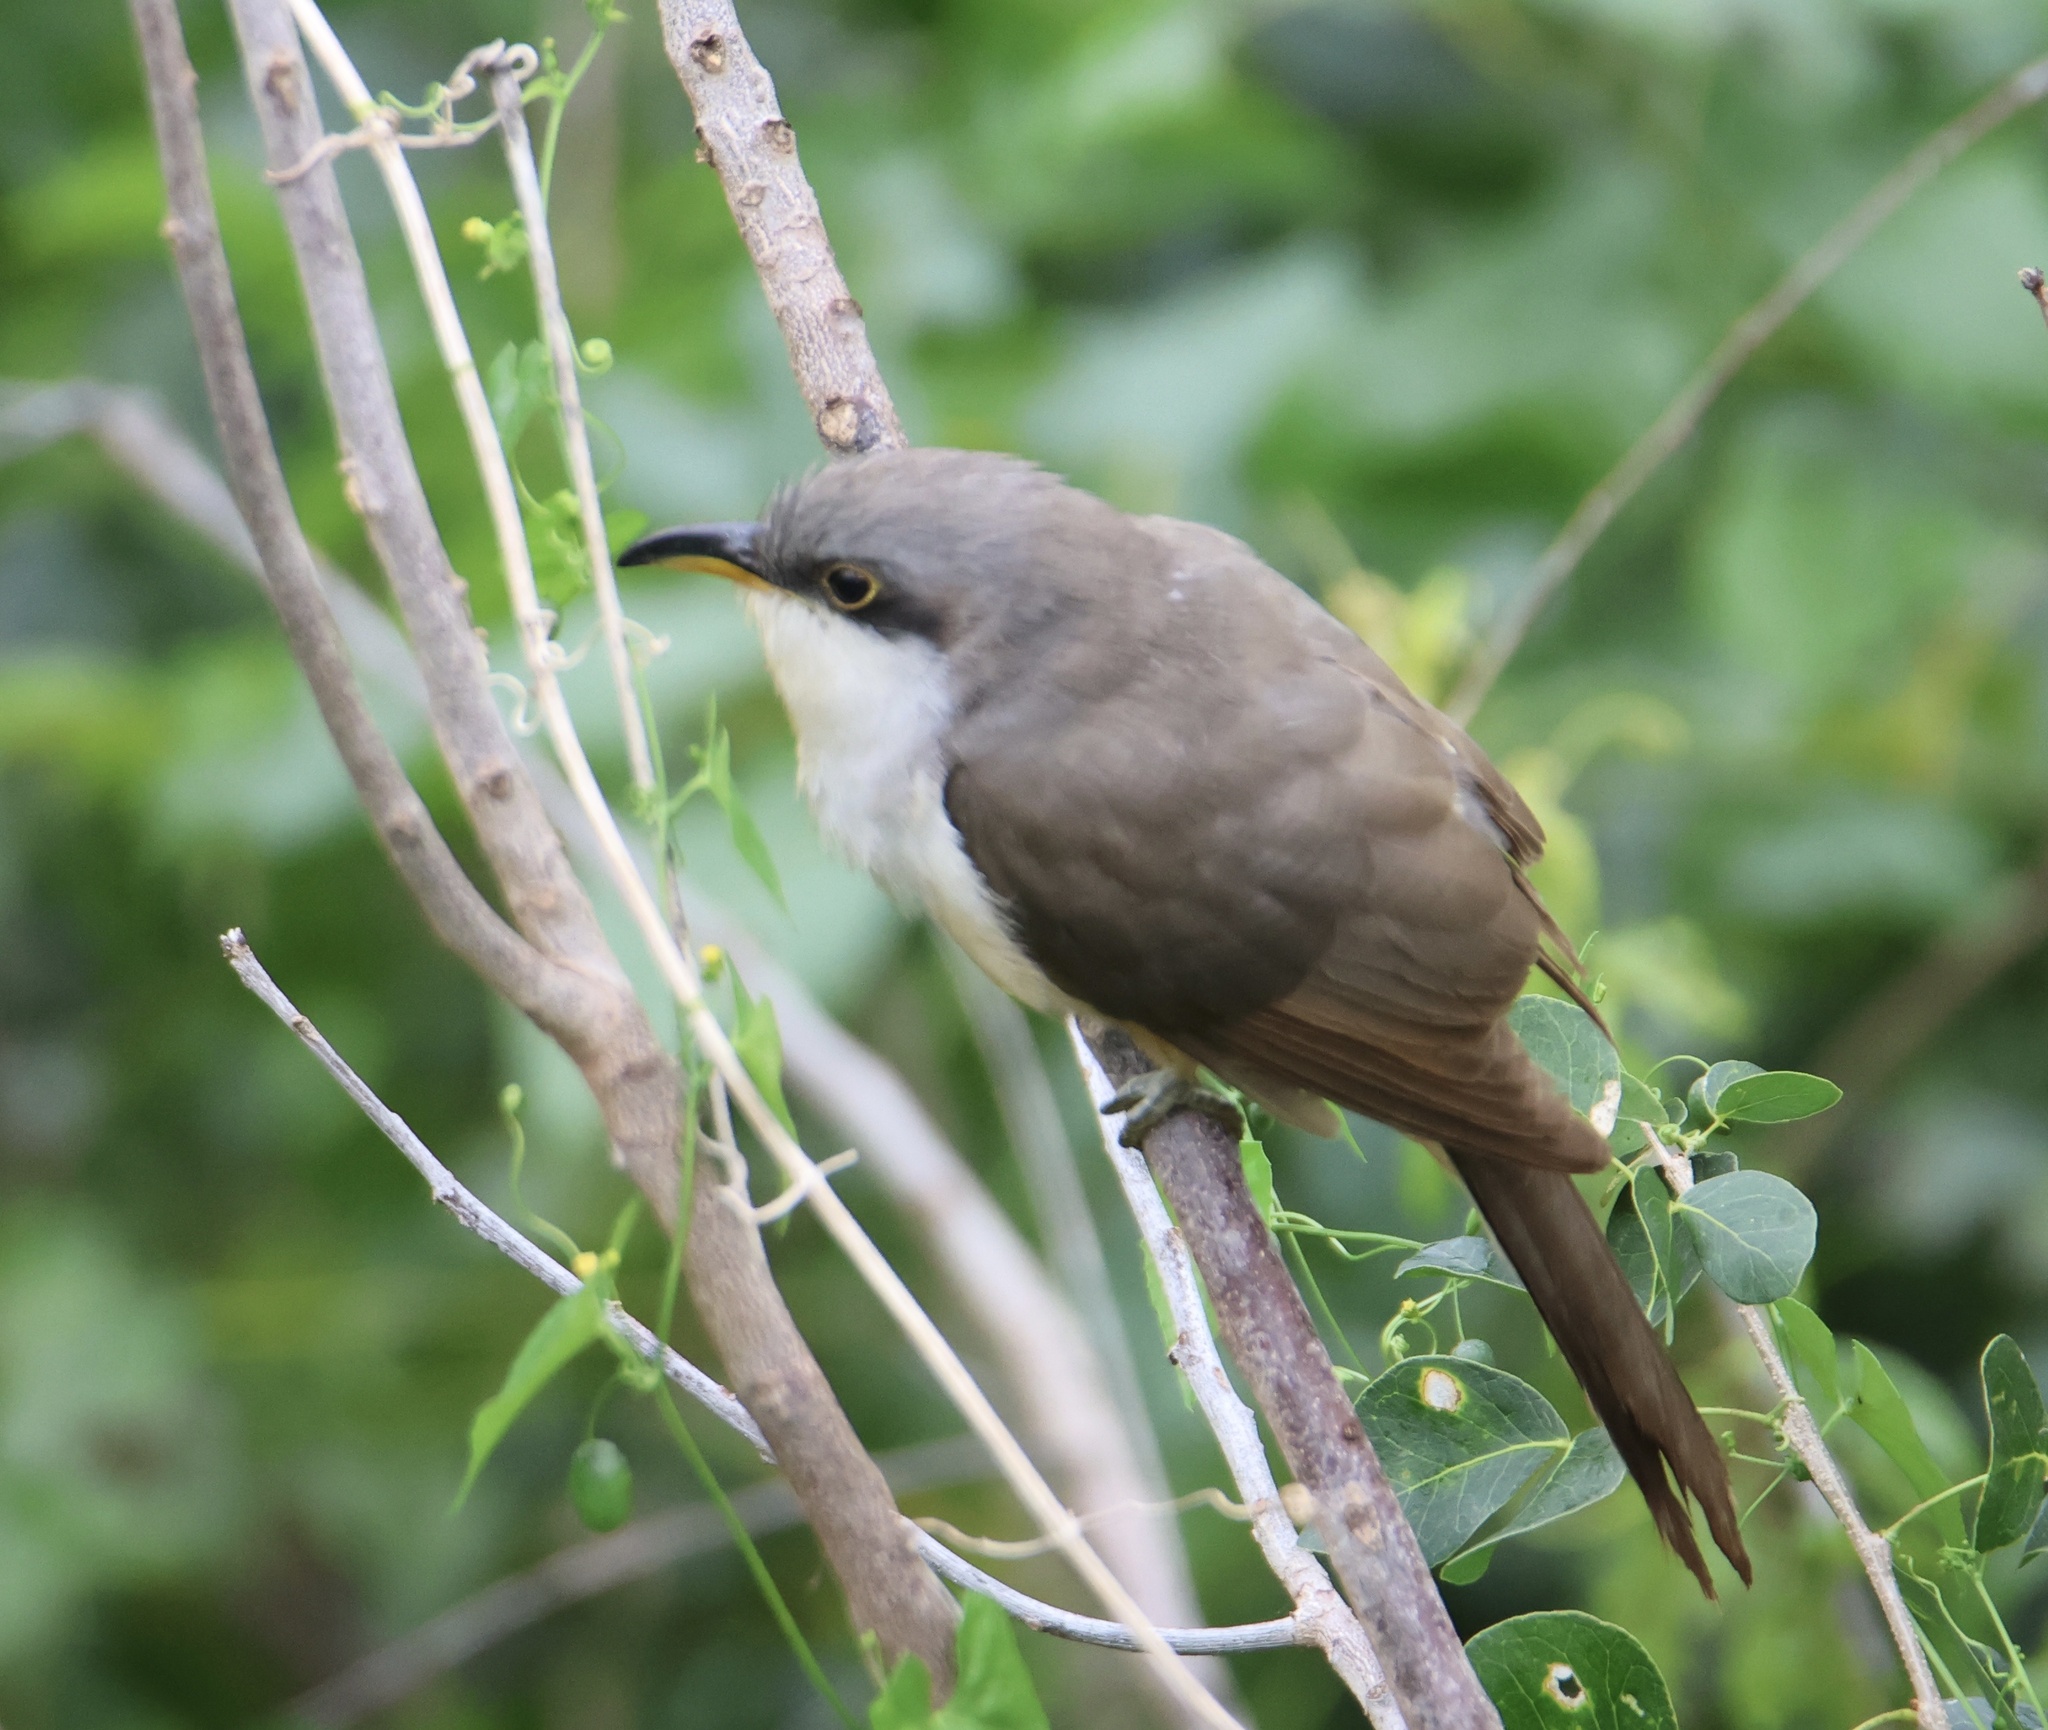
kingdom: Animalia
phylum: Chordata
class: Aves
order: Cuculiformes
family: Cuculidae
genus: Coccyzus
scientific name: Coccyzus minor
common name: Mangrove cuckoo
